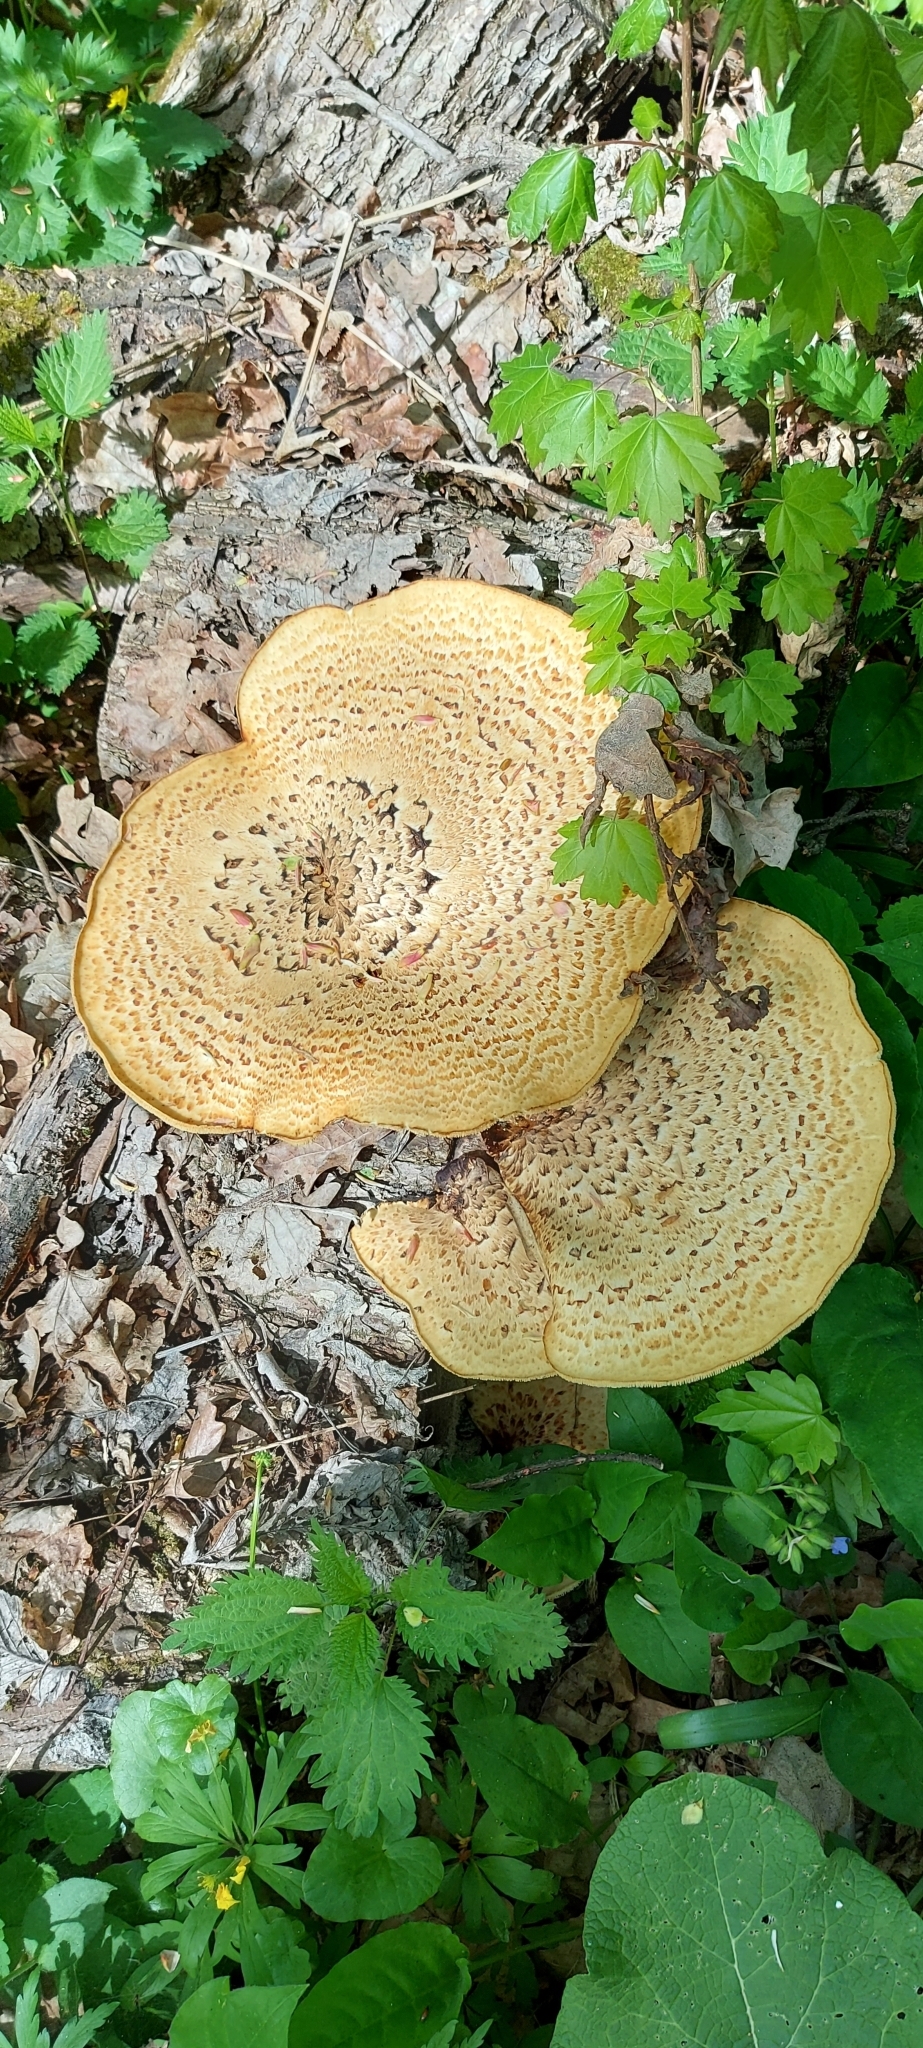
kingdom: Fungi
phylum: Basidiomycota
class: Agaricomycetes
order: Polyporales
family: Polyporaceae
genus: Cerioporus
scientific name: Cerioporus squamosus
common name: Dryad's saddle
